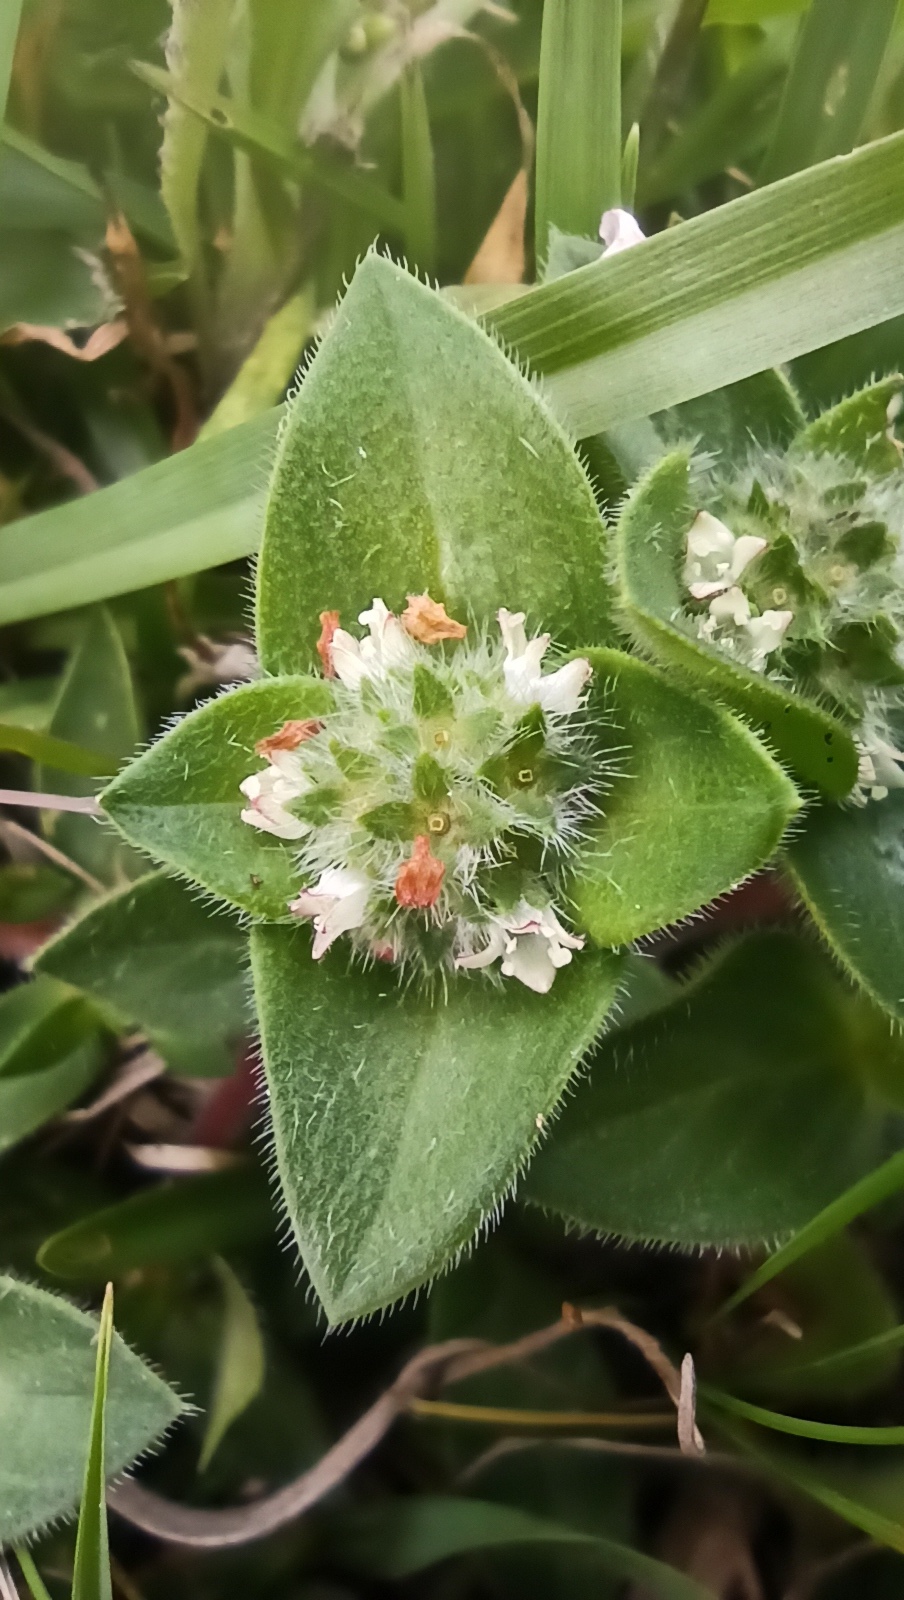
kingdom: Plantae
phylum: Tracheophyta
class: Magnoliopsida
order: Gentianales
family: Rubiaceae
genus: Richardia
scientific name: Richardia humistrata
